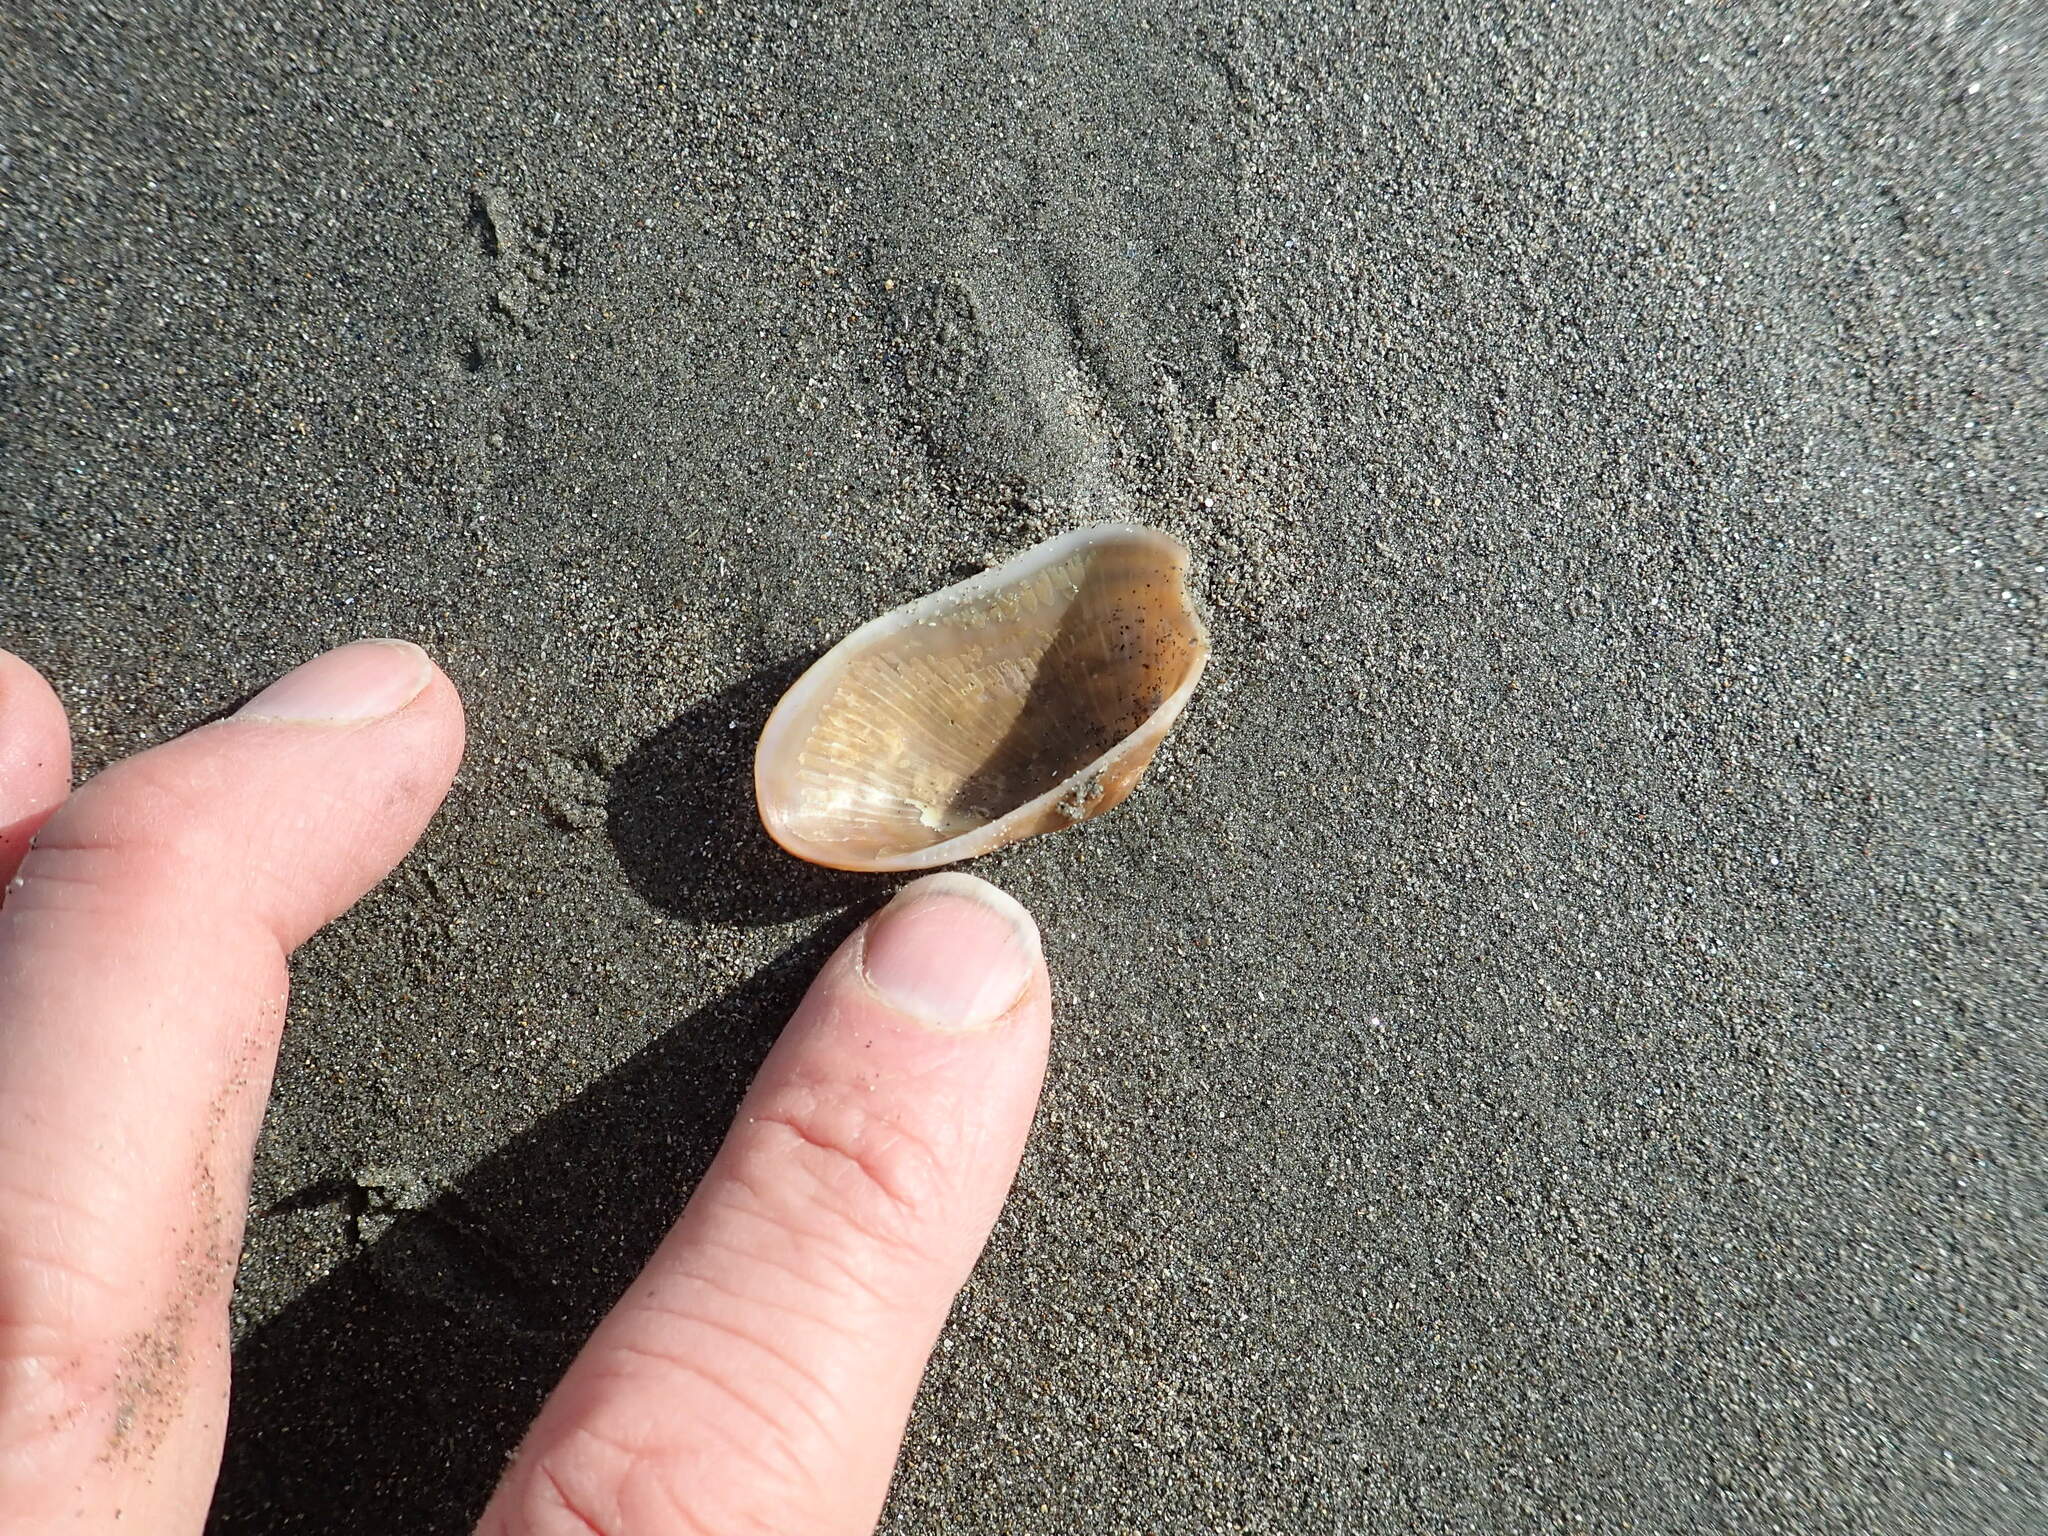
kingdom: Animalia
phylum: Mollusca
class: Bivalvia
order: Arcida
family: Arcidae
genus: Barbatia
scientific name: Barbatia novaezealandiae
